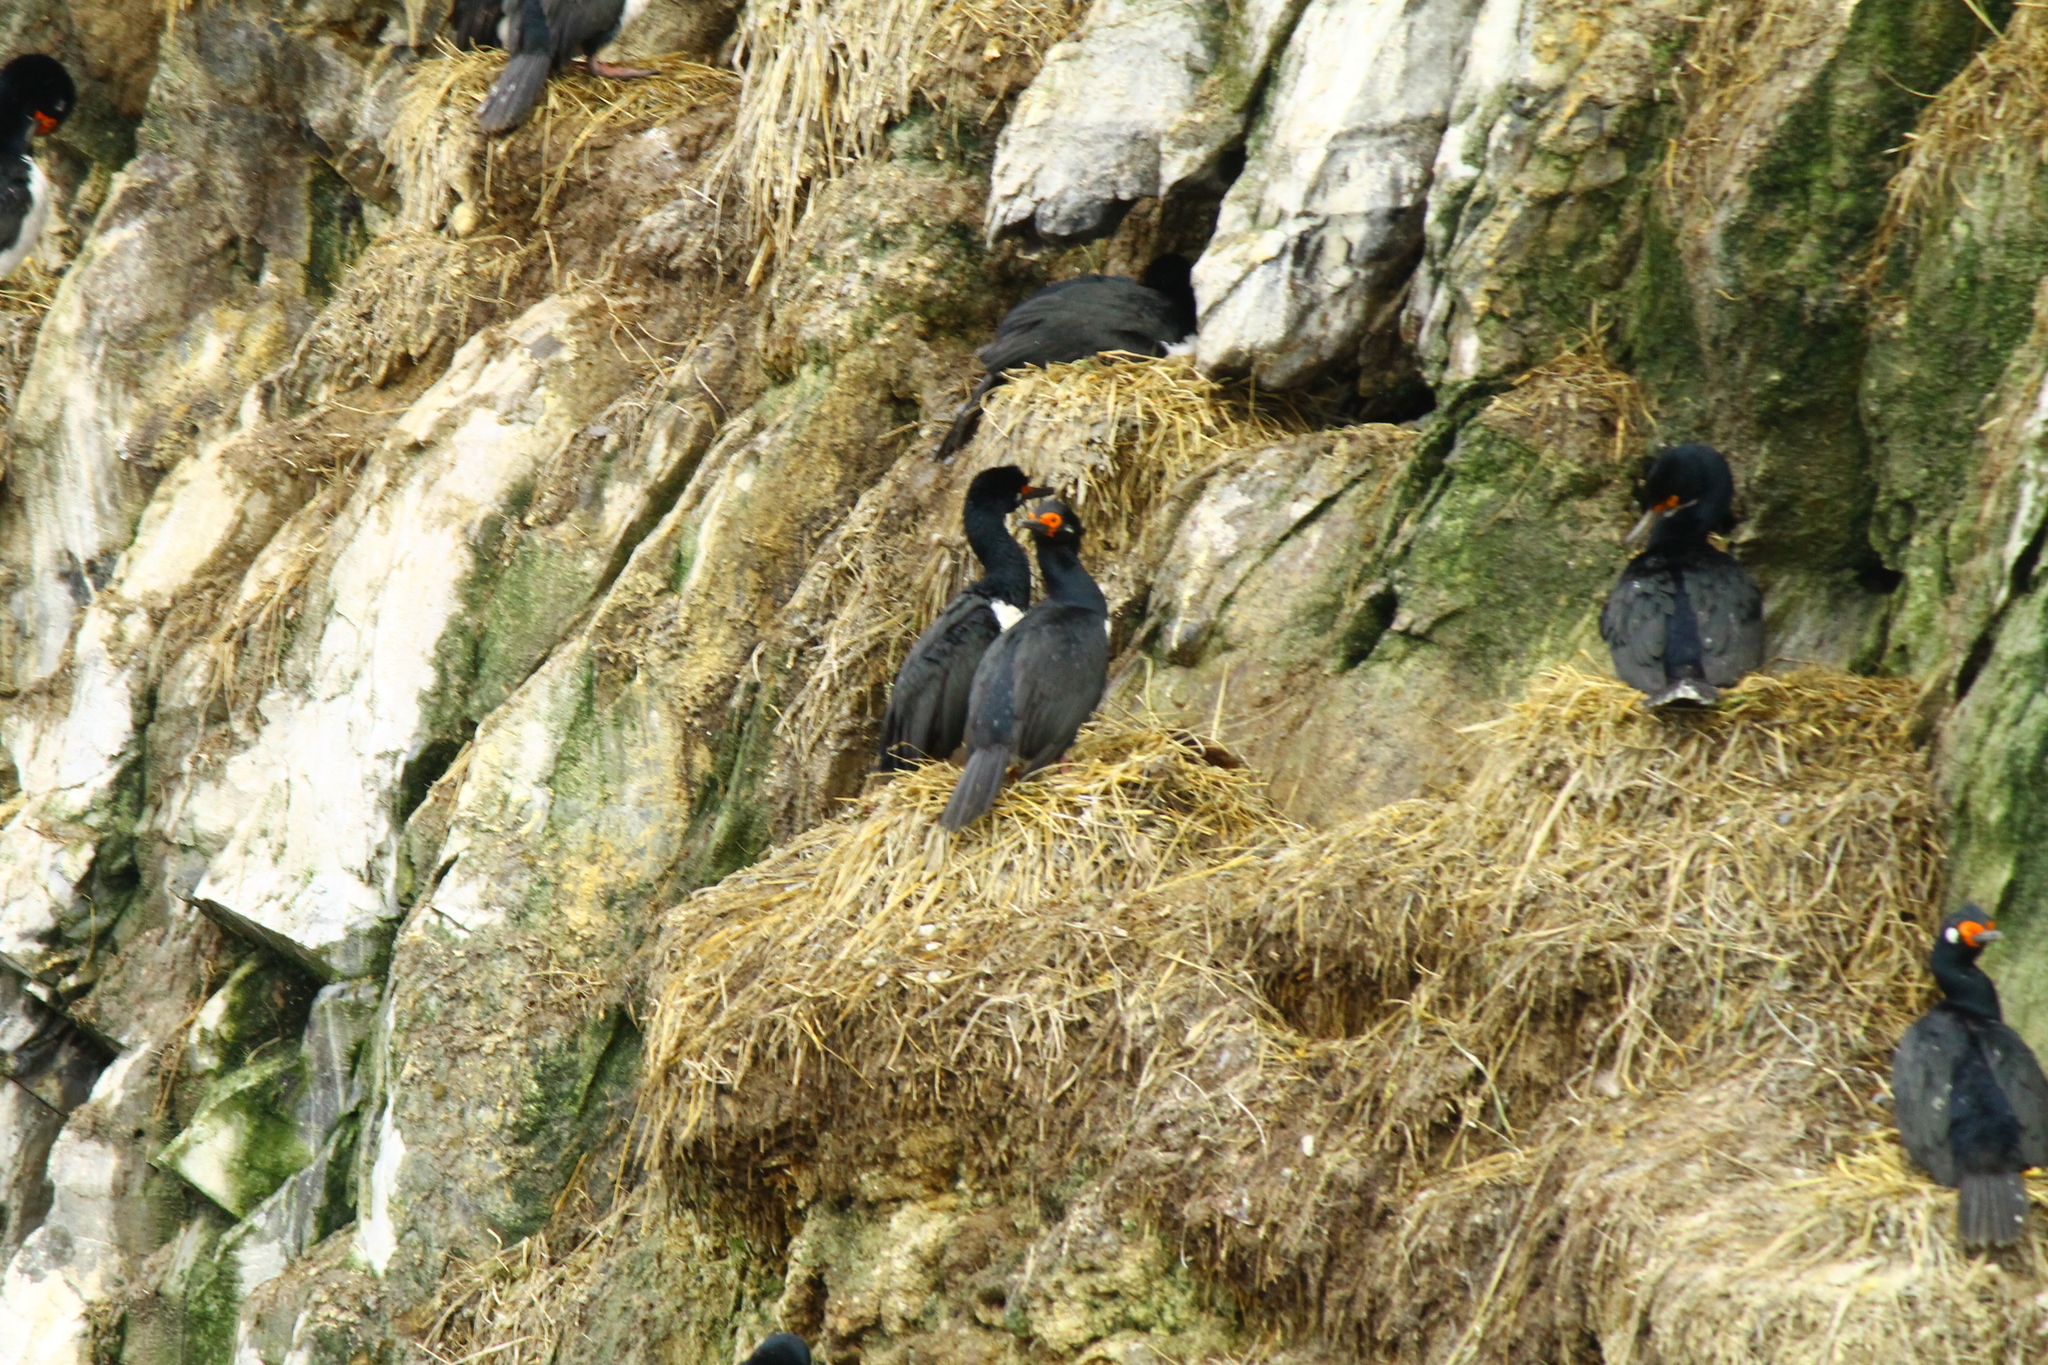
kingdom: Animalia
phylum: Chordata
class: Aves
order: Suliformes
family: Phalacrocoracidae
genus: Phalacrocorax
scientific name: Phalacrocorax magellanicus
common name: Rock shag
